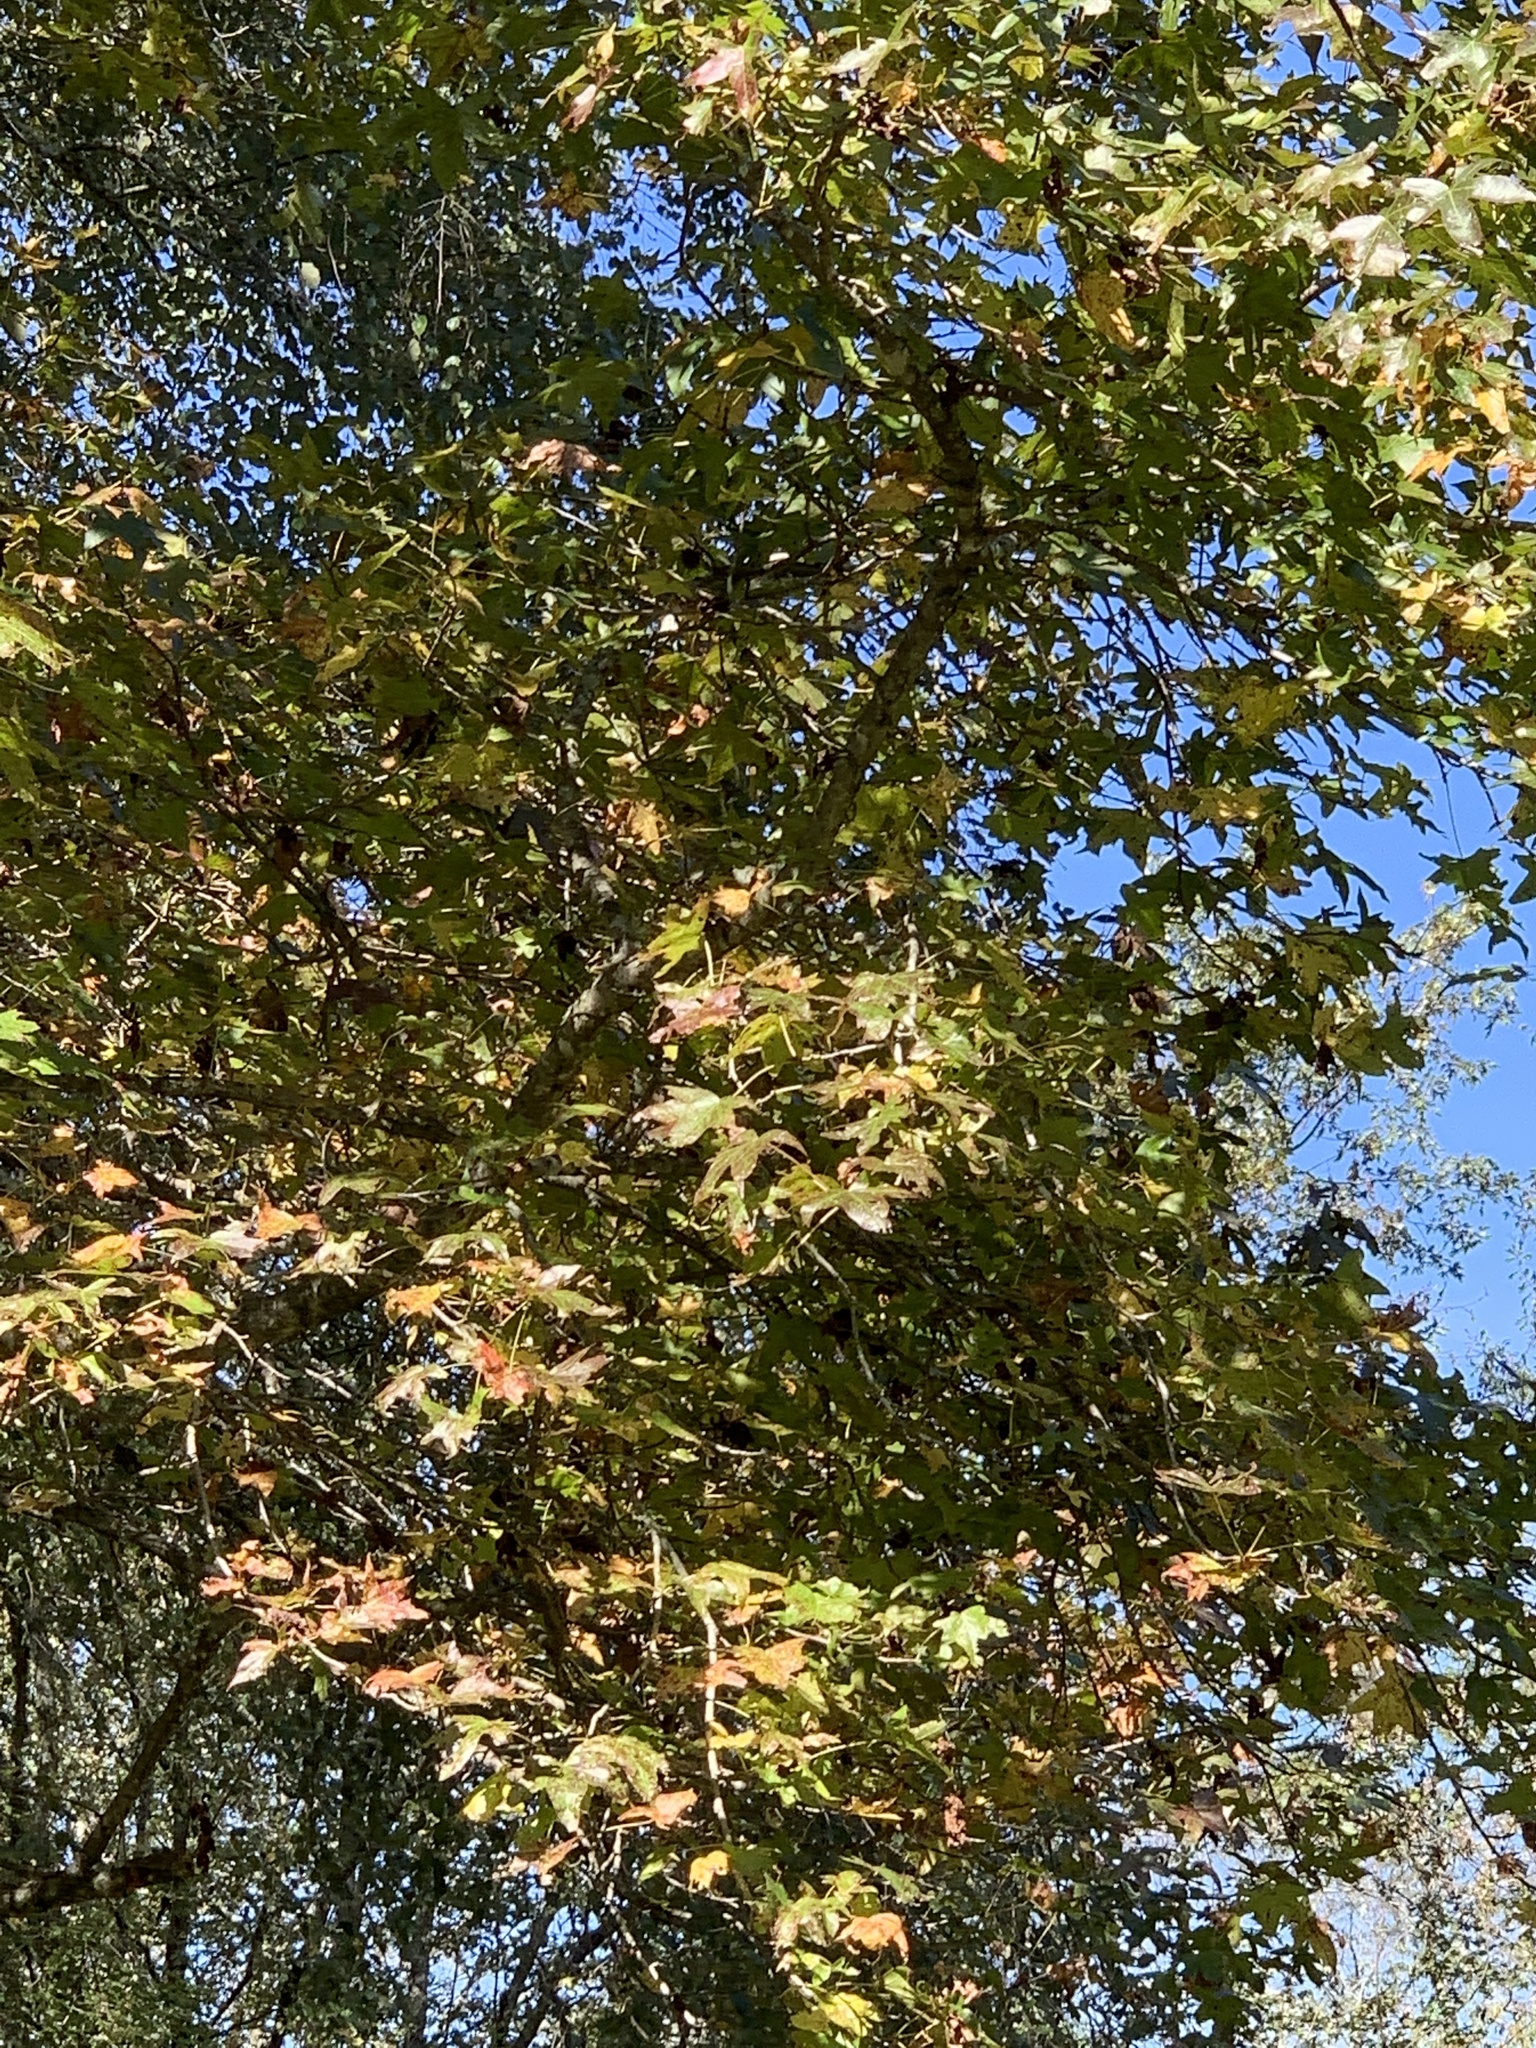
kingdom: Plantae
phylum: Tracheophyta
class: Magnoliopsida
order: Saxifragales
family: Altingiaceae
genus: Liquidambar
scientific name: Liquidambar styraciflua
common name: Sweet gum
